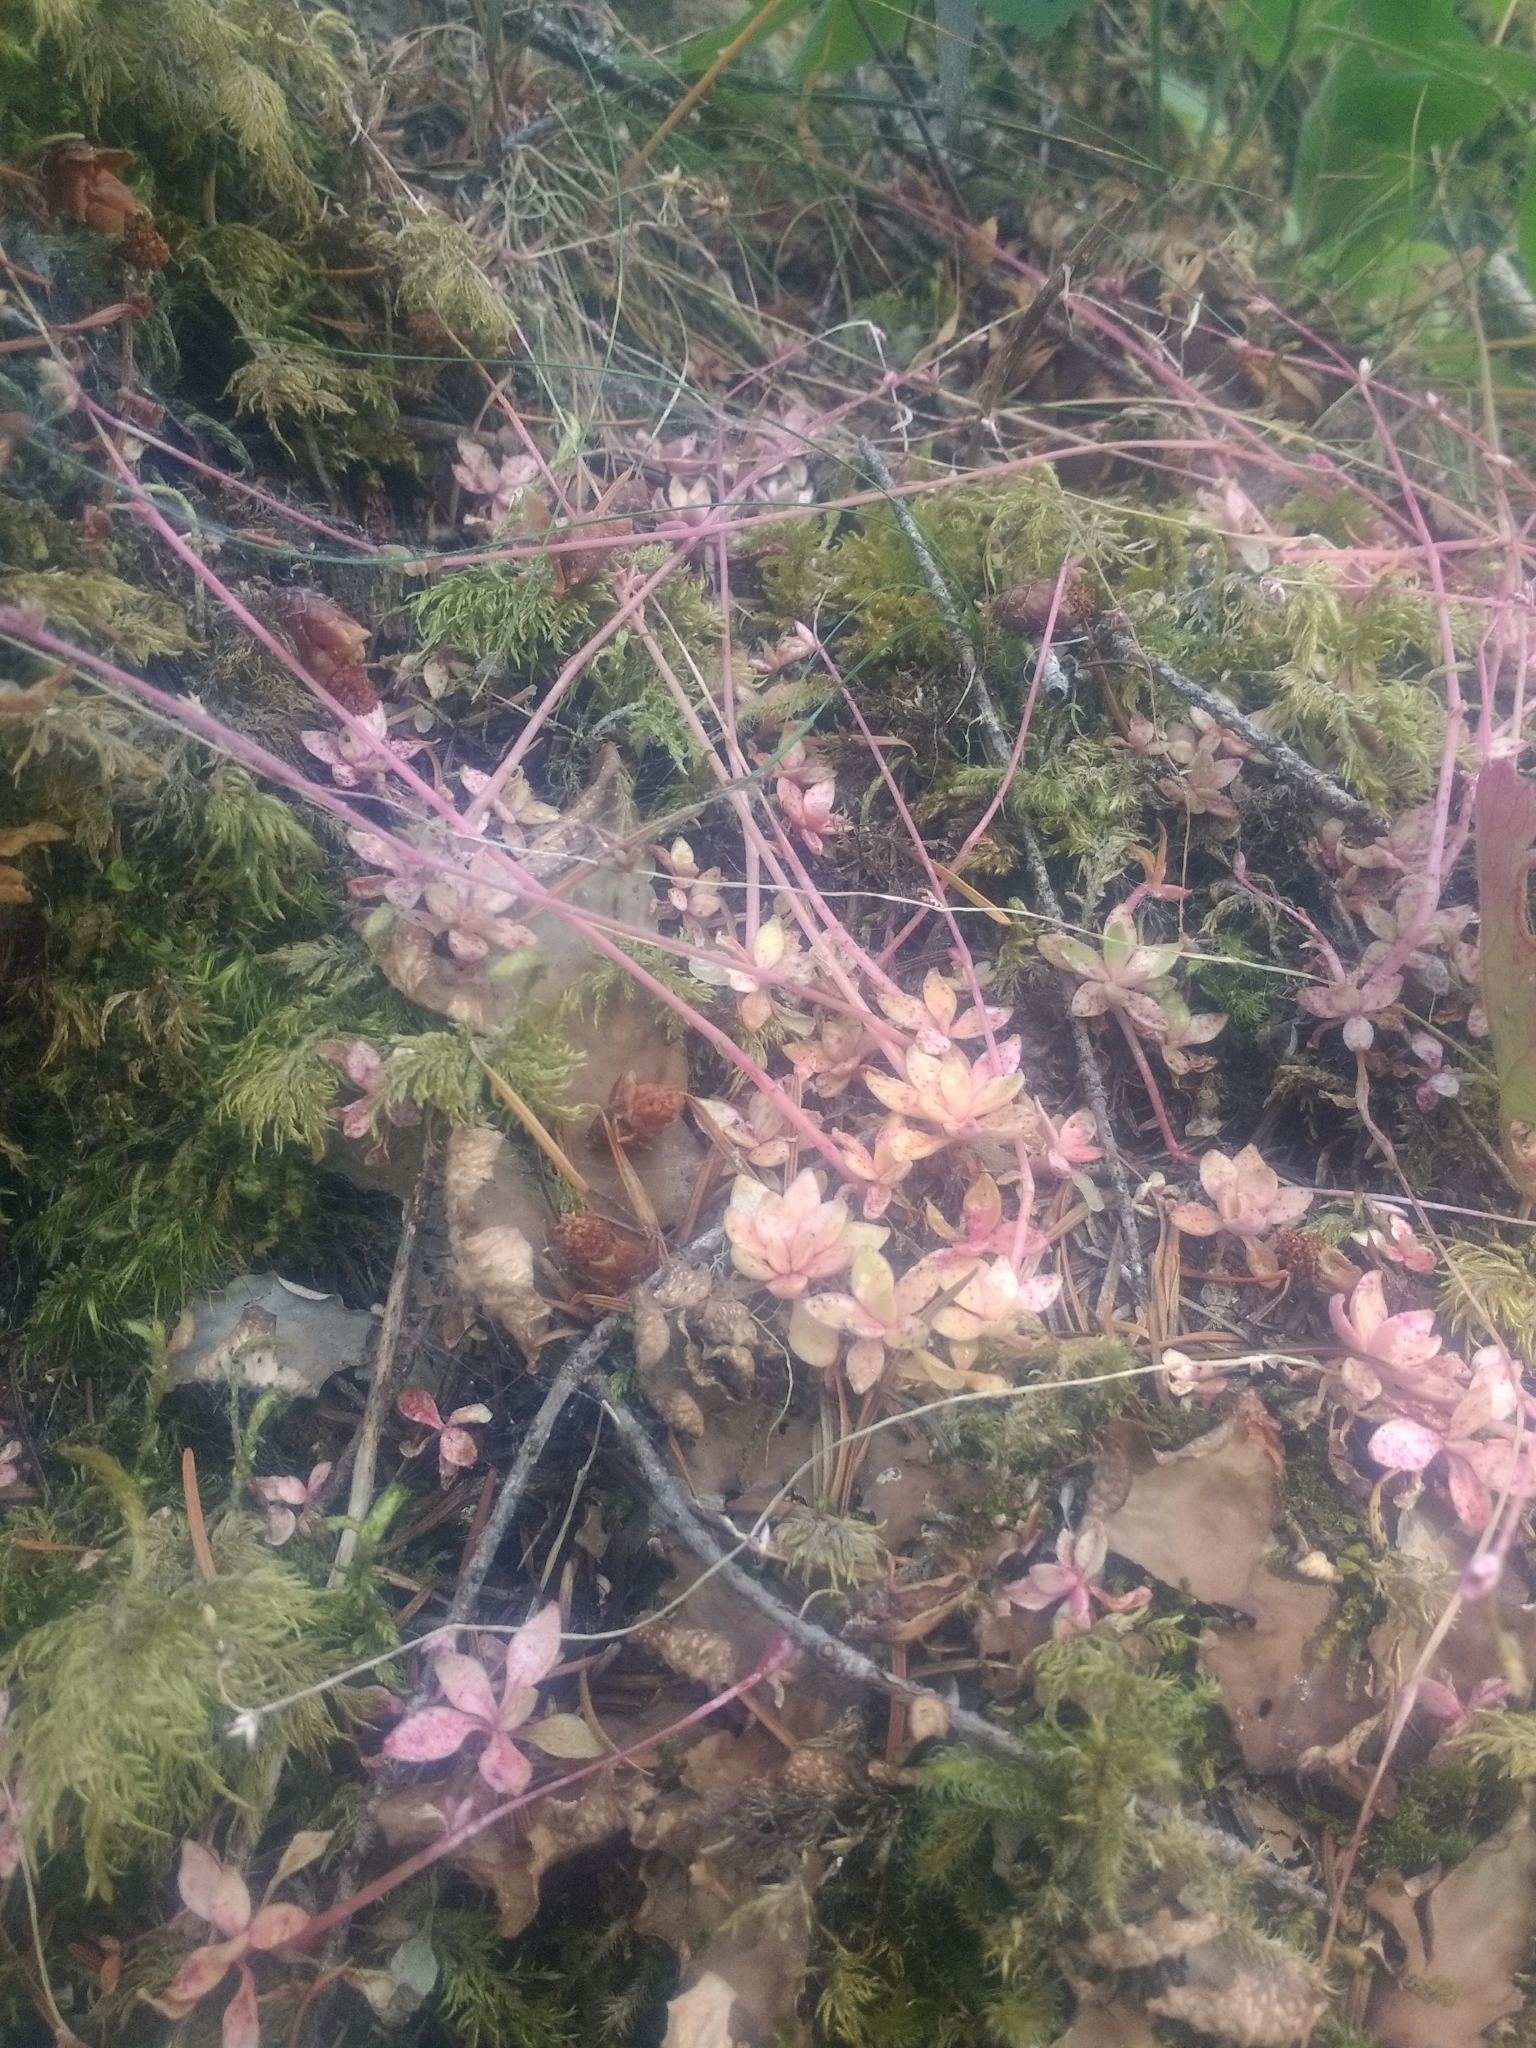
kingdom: Plantae
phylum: Tracheophyta
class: Magnoliopsida
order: Caryophyllales
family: Montiaceae
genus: Montia
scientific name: Montia parvifolia
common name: Small-leaved blinks
